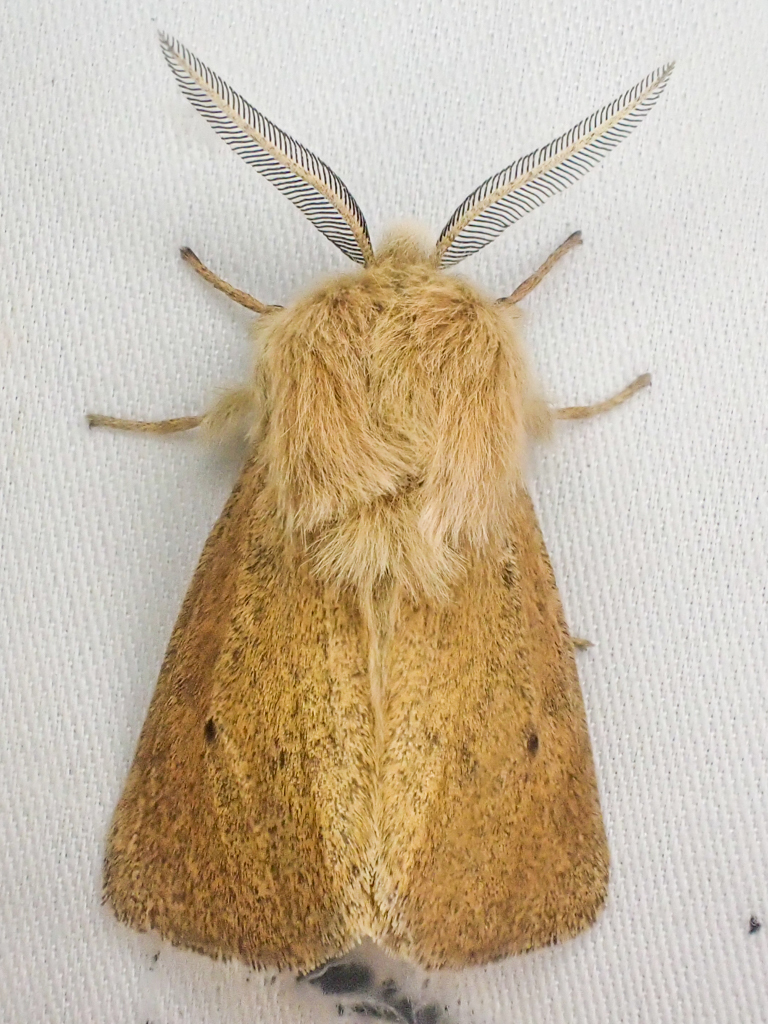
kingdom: Animalia
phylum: Arthropoda
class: Insecta
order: Lepidoptera
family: Erebidae
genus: Spilosoma
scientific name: Spilosoma vagans
